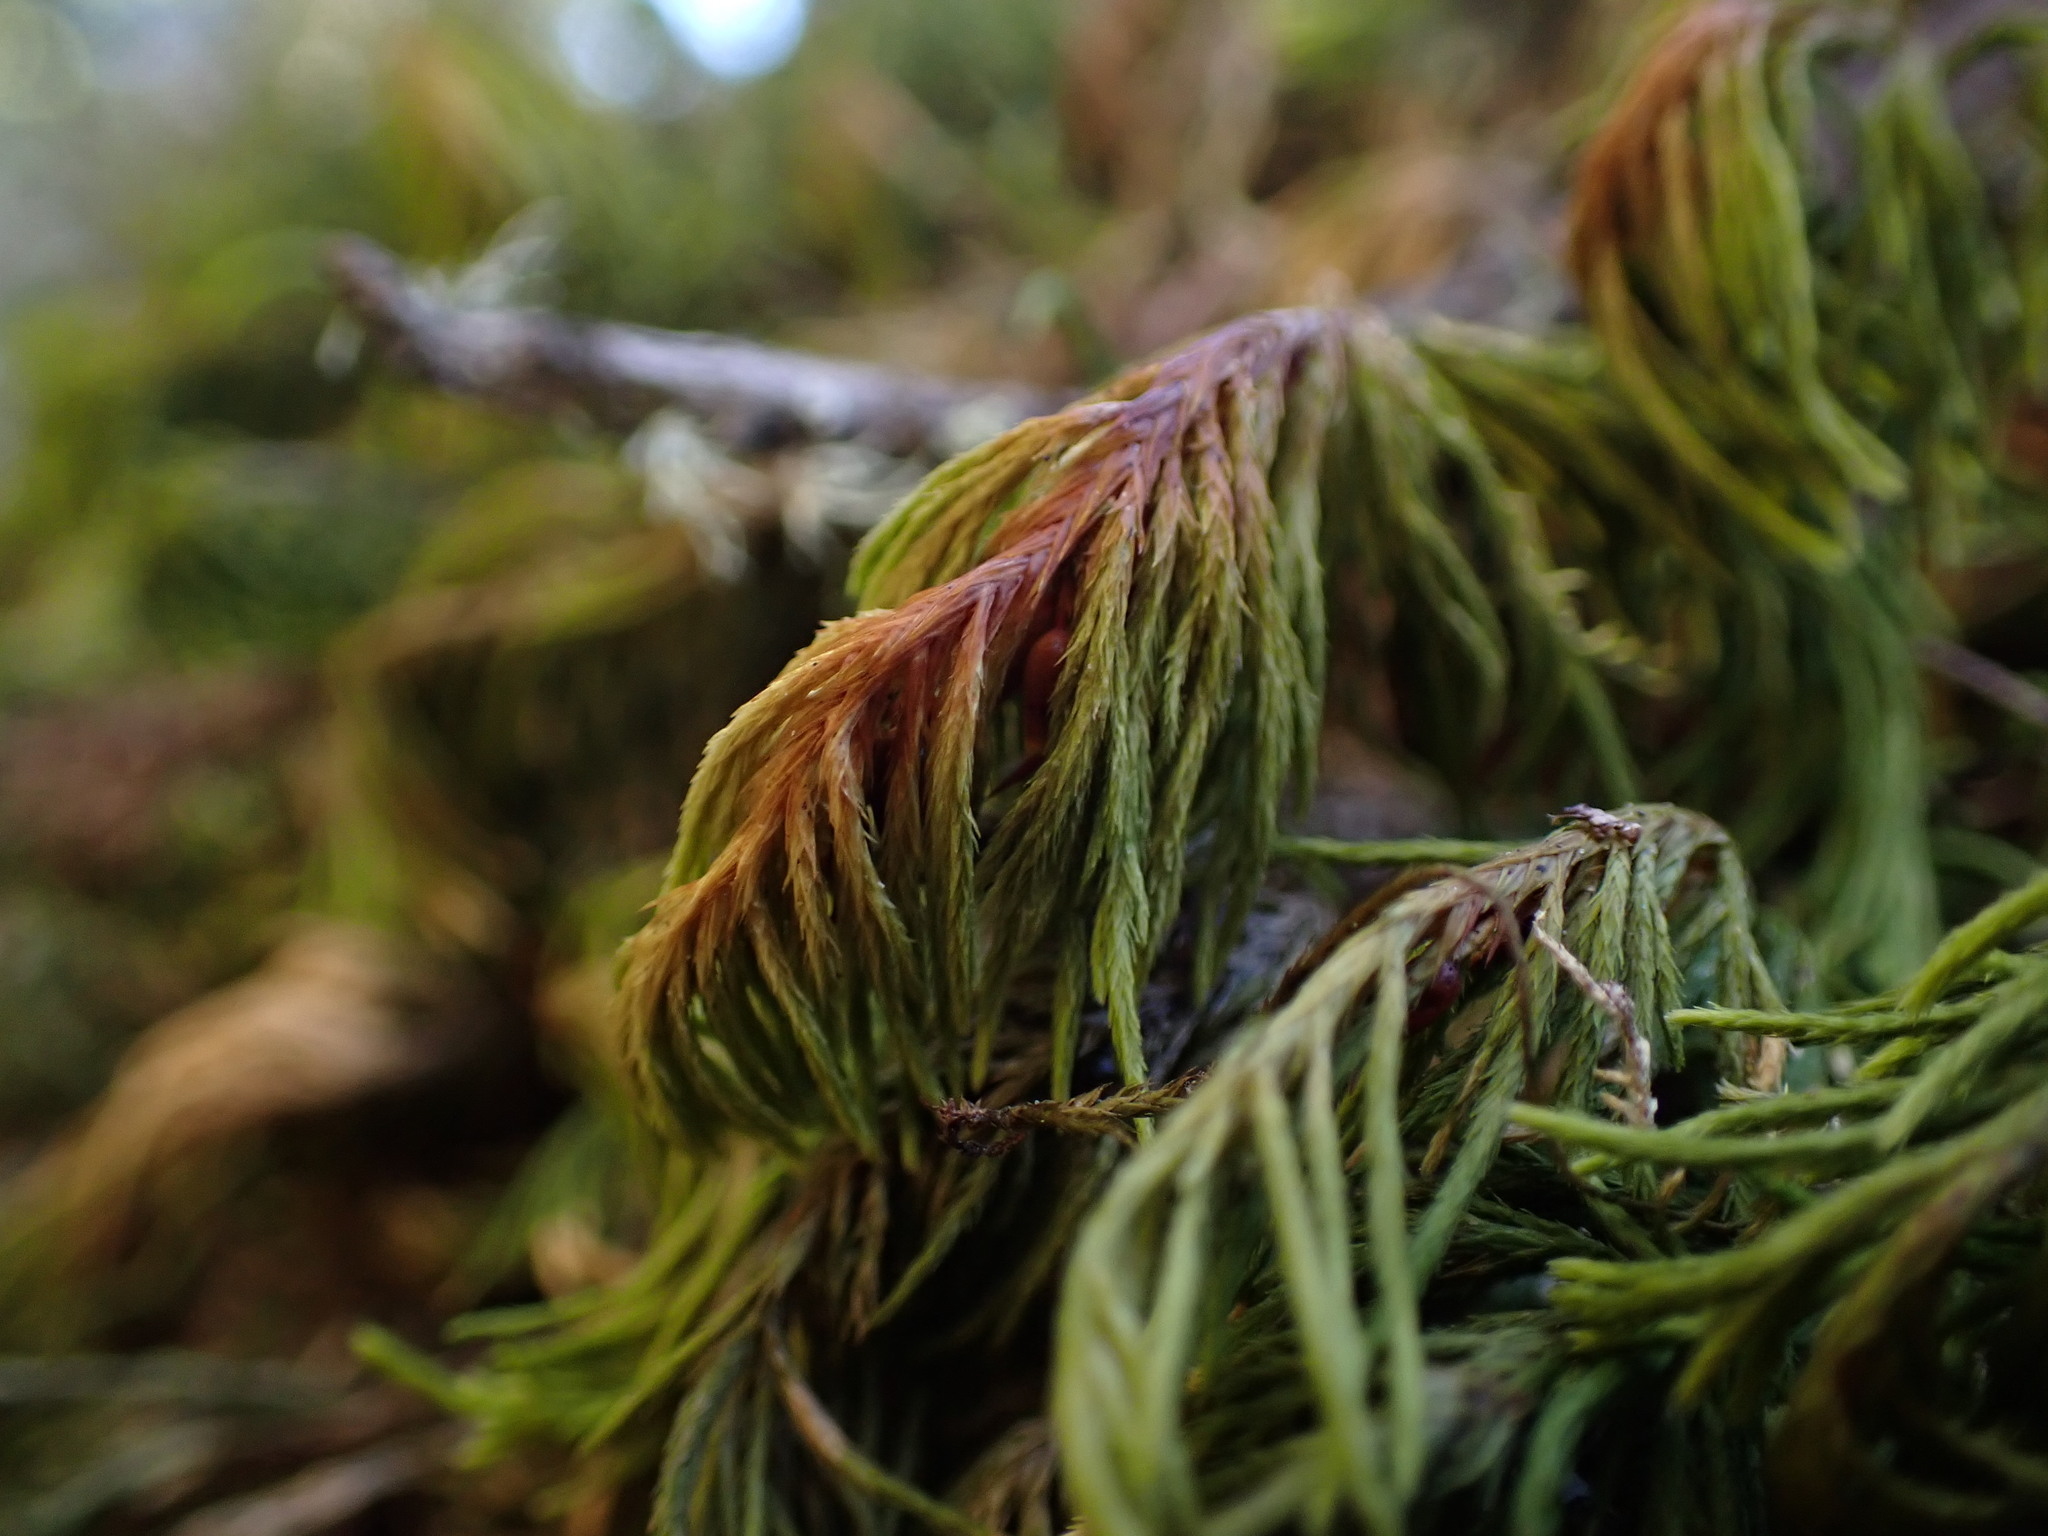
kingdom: Plantae
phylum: Bryophyta
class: Bryopsida
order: Hypnales
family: Cryphaeaceae
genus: Dendroalsia
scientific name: Dendroalsia abietina
